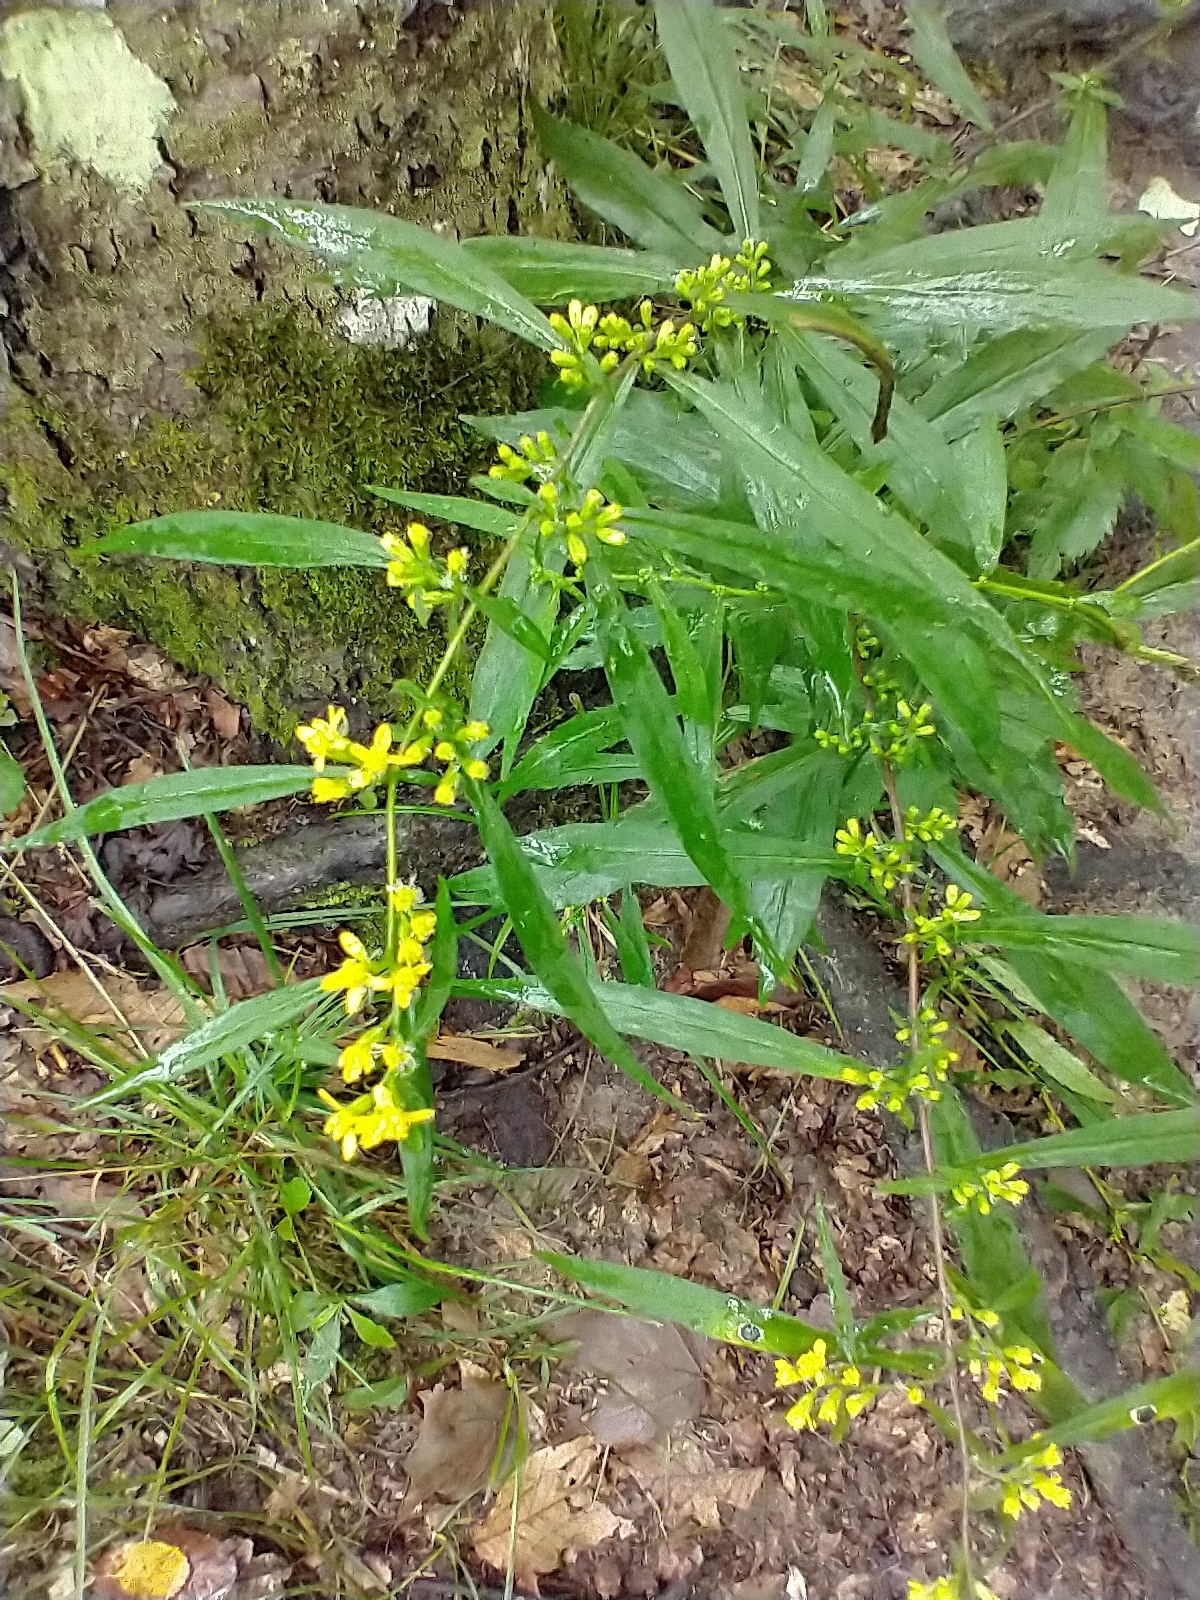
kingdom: Plantae
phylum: Tracheophyta
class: Magnoliopsida
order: Asterales
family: Asteraceae
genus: Solidago
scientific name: Solidago caesia
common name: Woodland goldenrod
